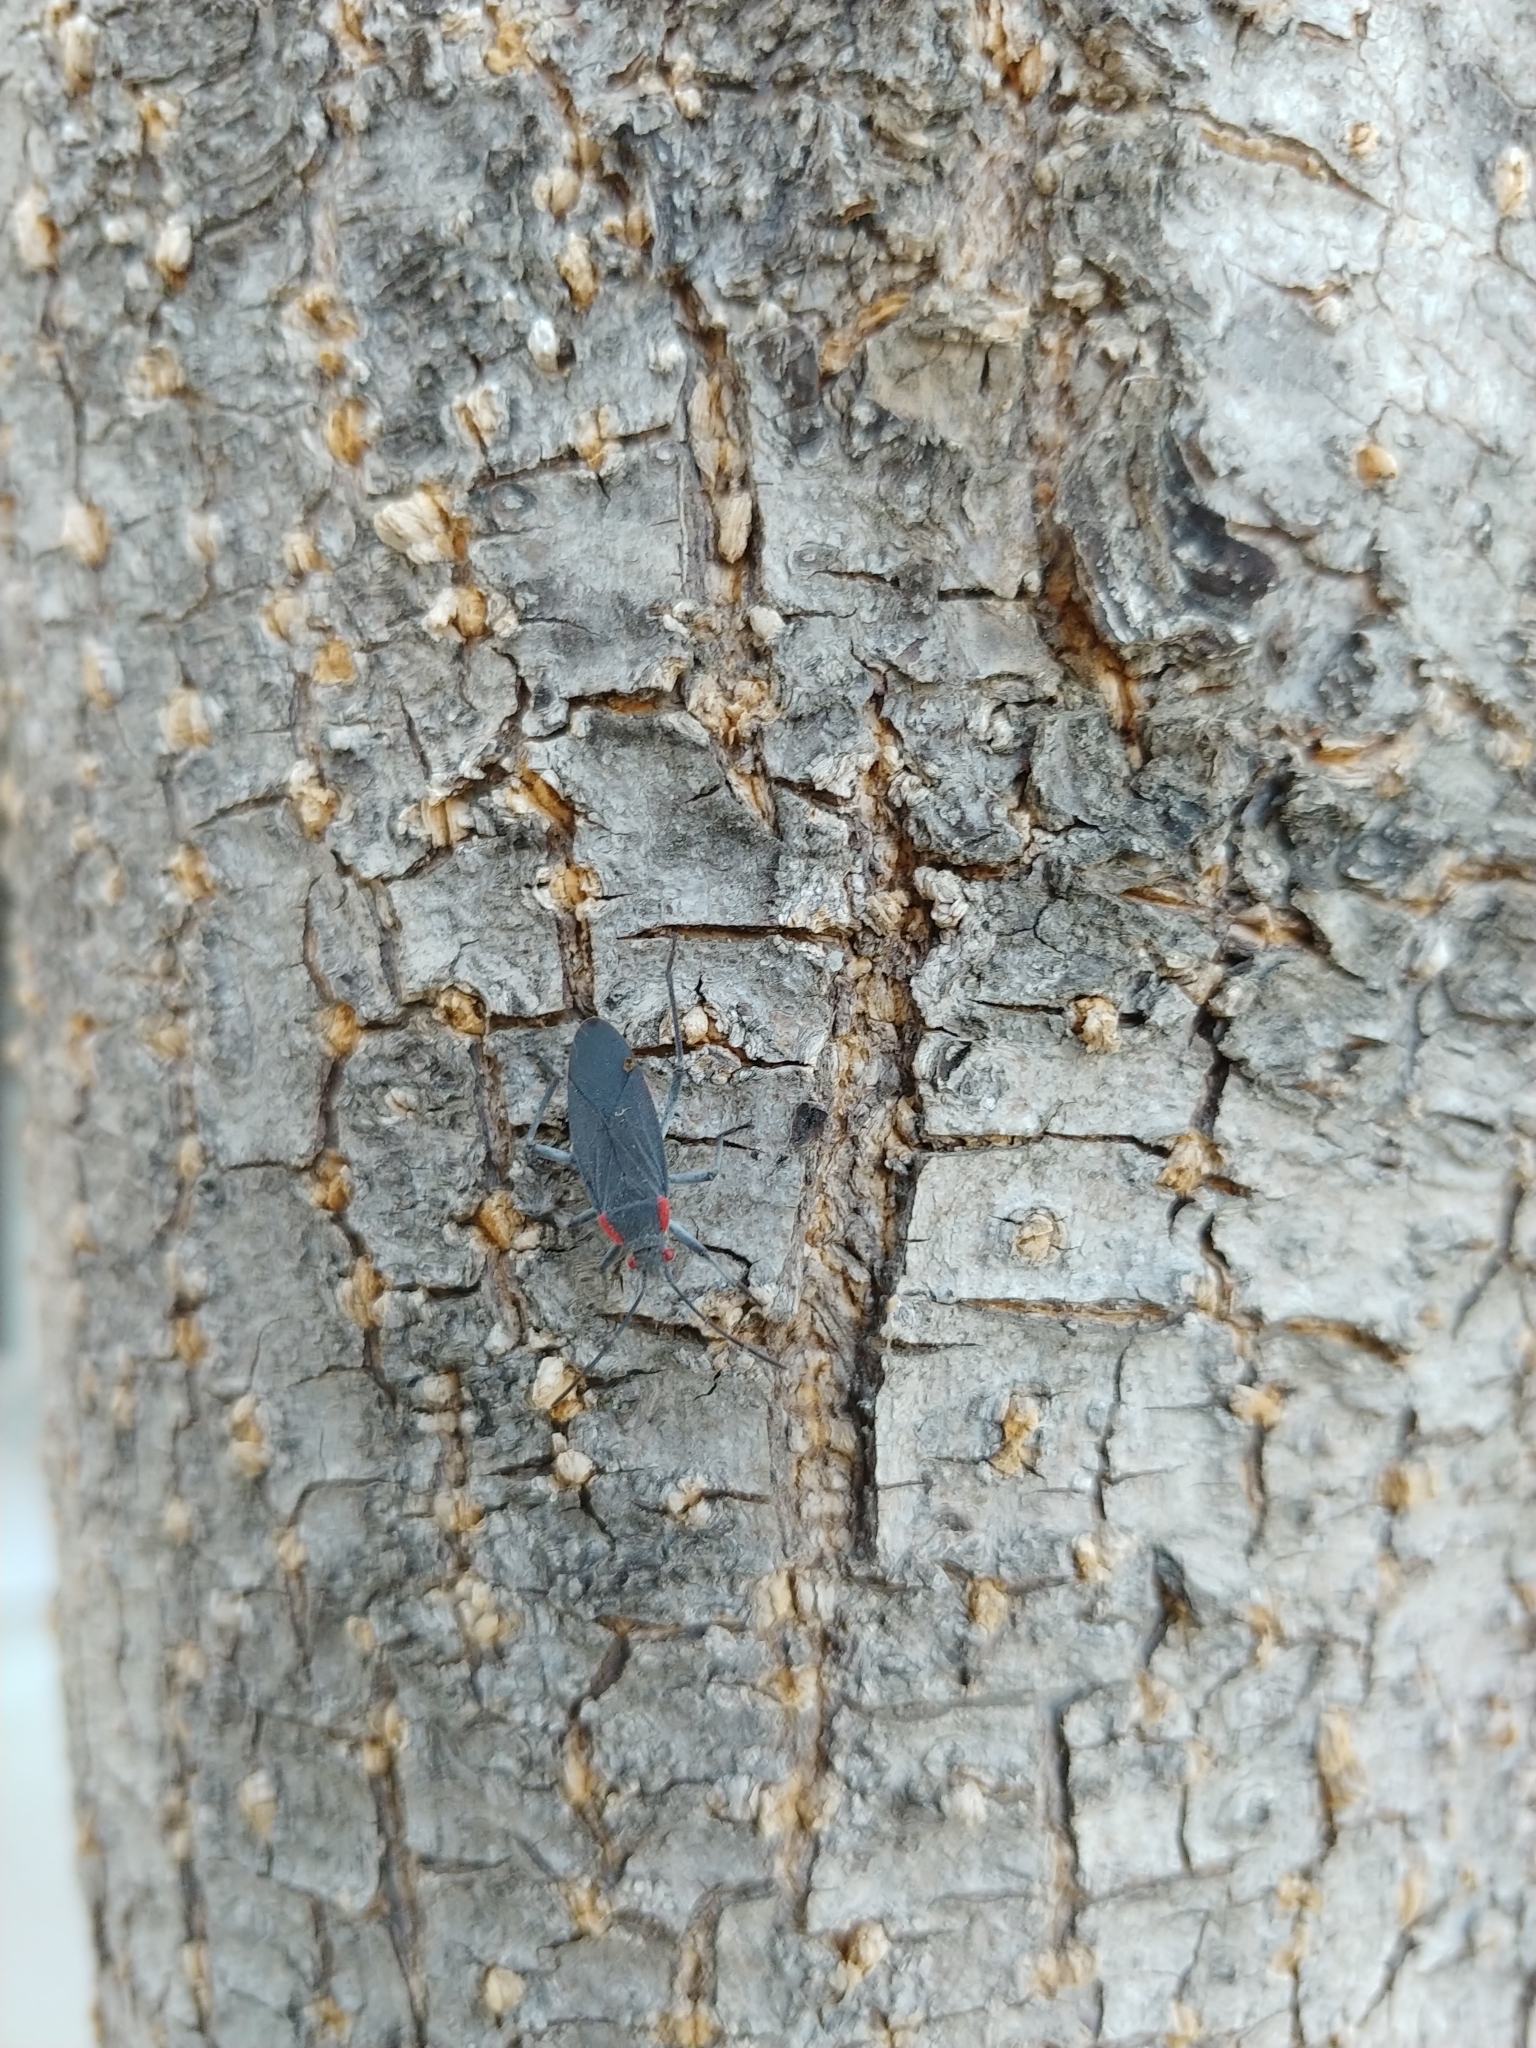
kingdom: Animalia
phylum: Arthropoda
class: Insecta
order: Hemiptera
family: Rhopalidae
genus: Jadera
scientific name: Jadera haematoloma
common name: Red-shouldered bug
